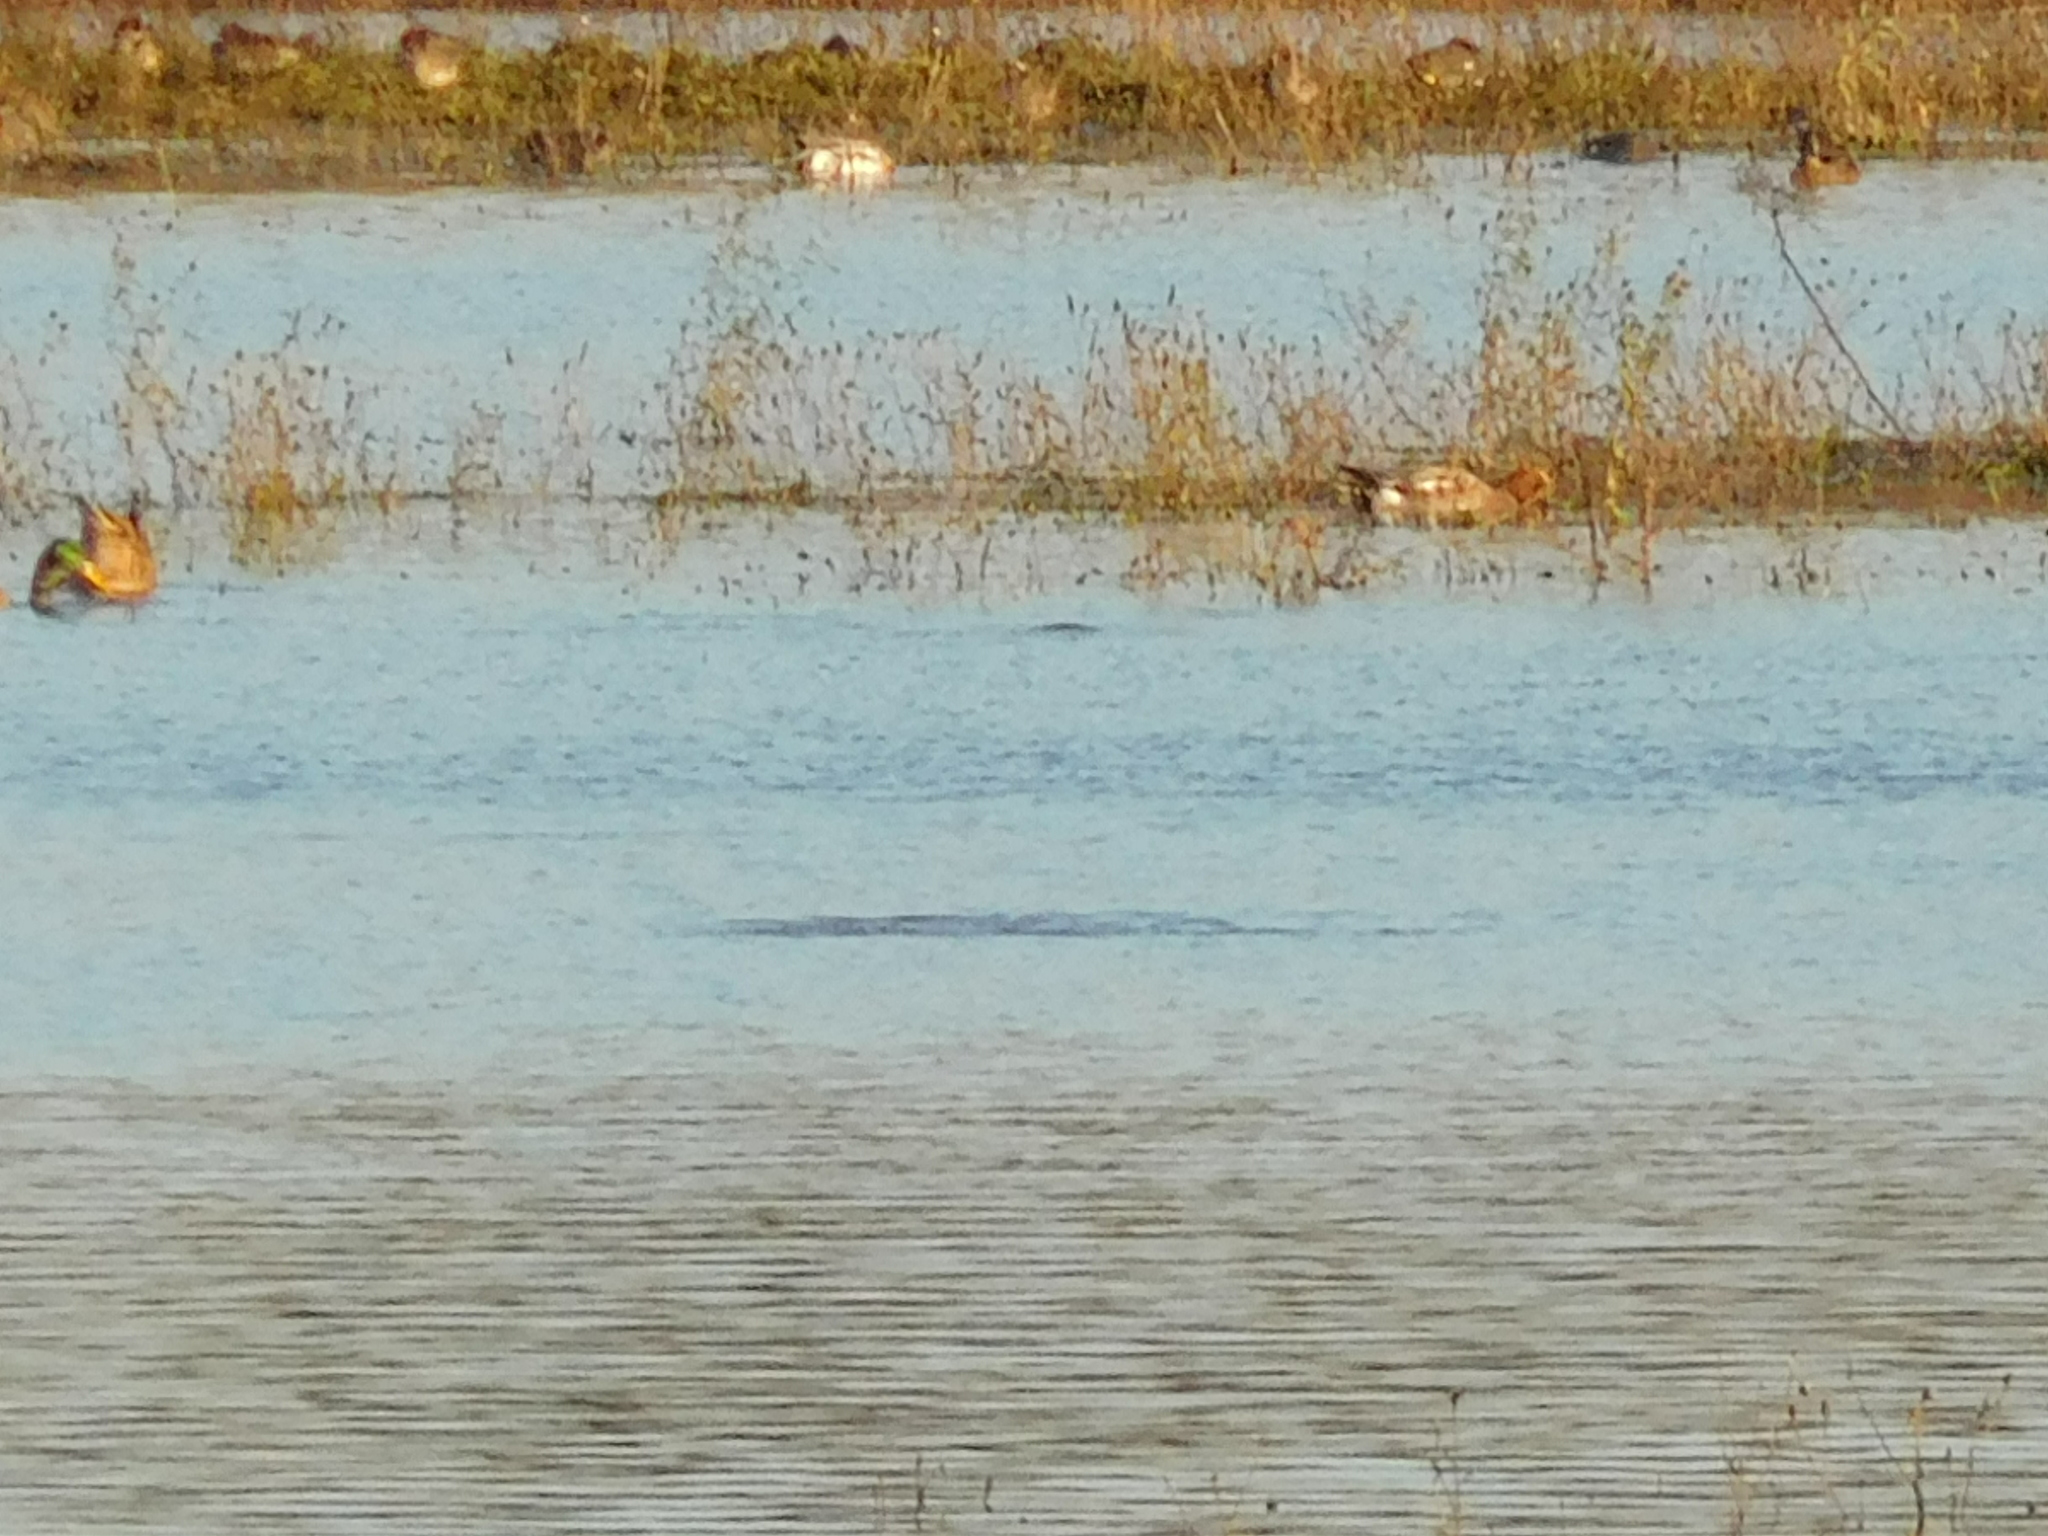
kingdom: Animalia
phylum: Chordata
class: Aves
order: Anseriformes
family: Anatidae
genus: Mareca
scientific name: Mareca penelope
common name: Eurasian wigeon
